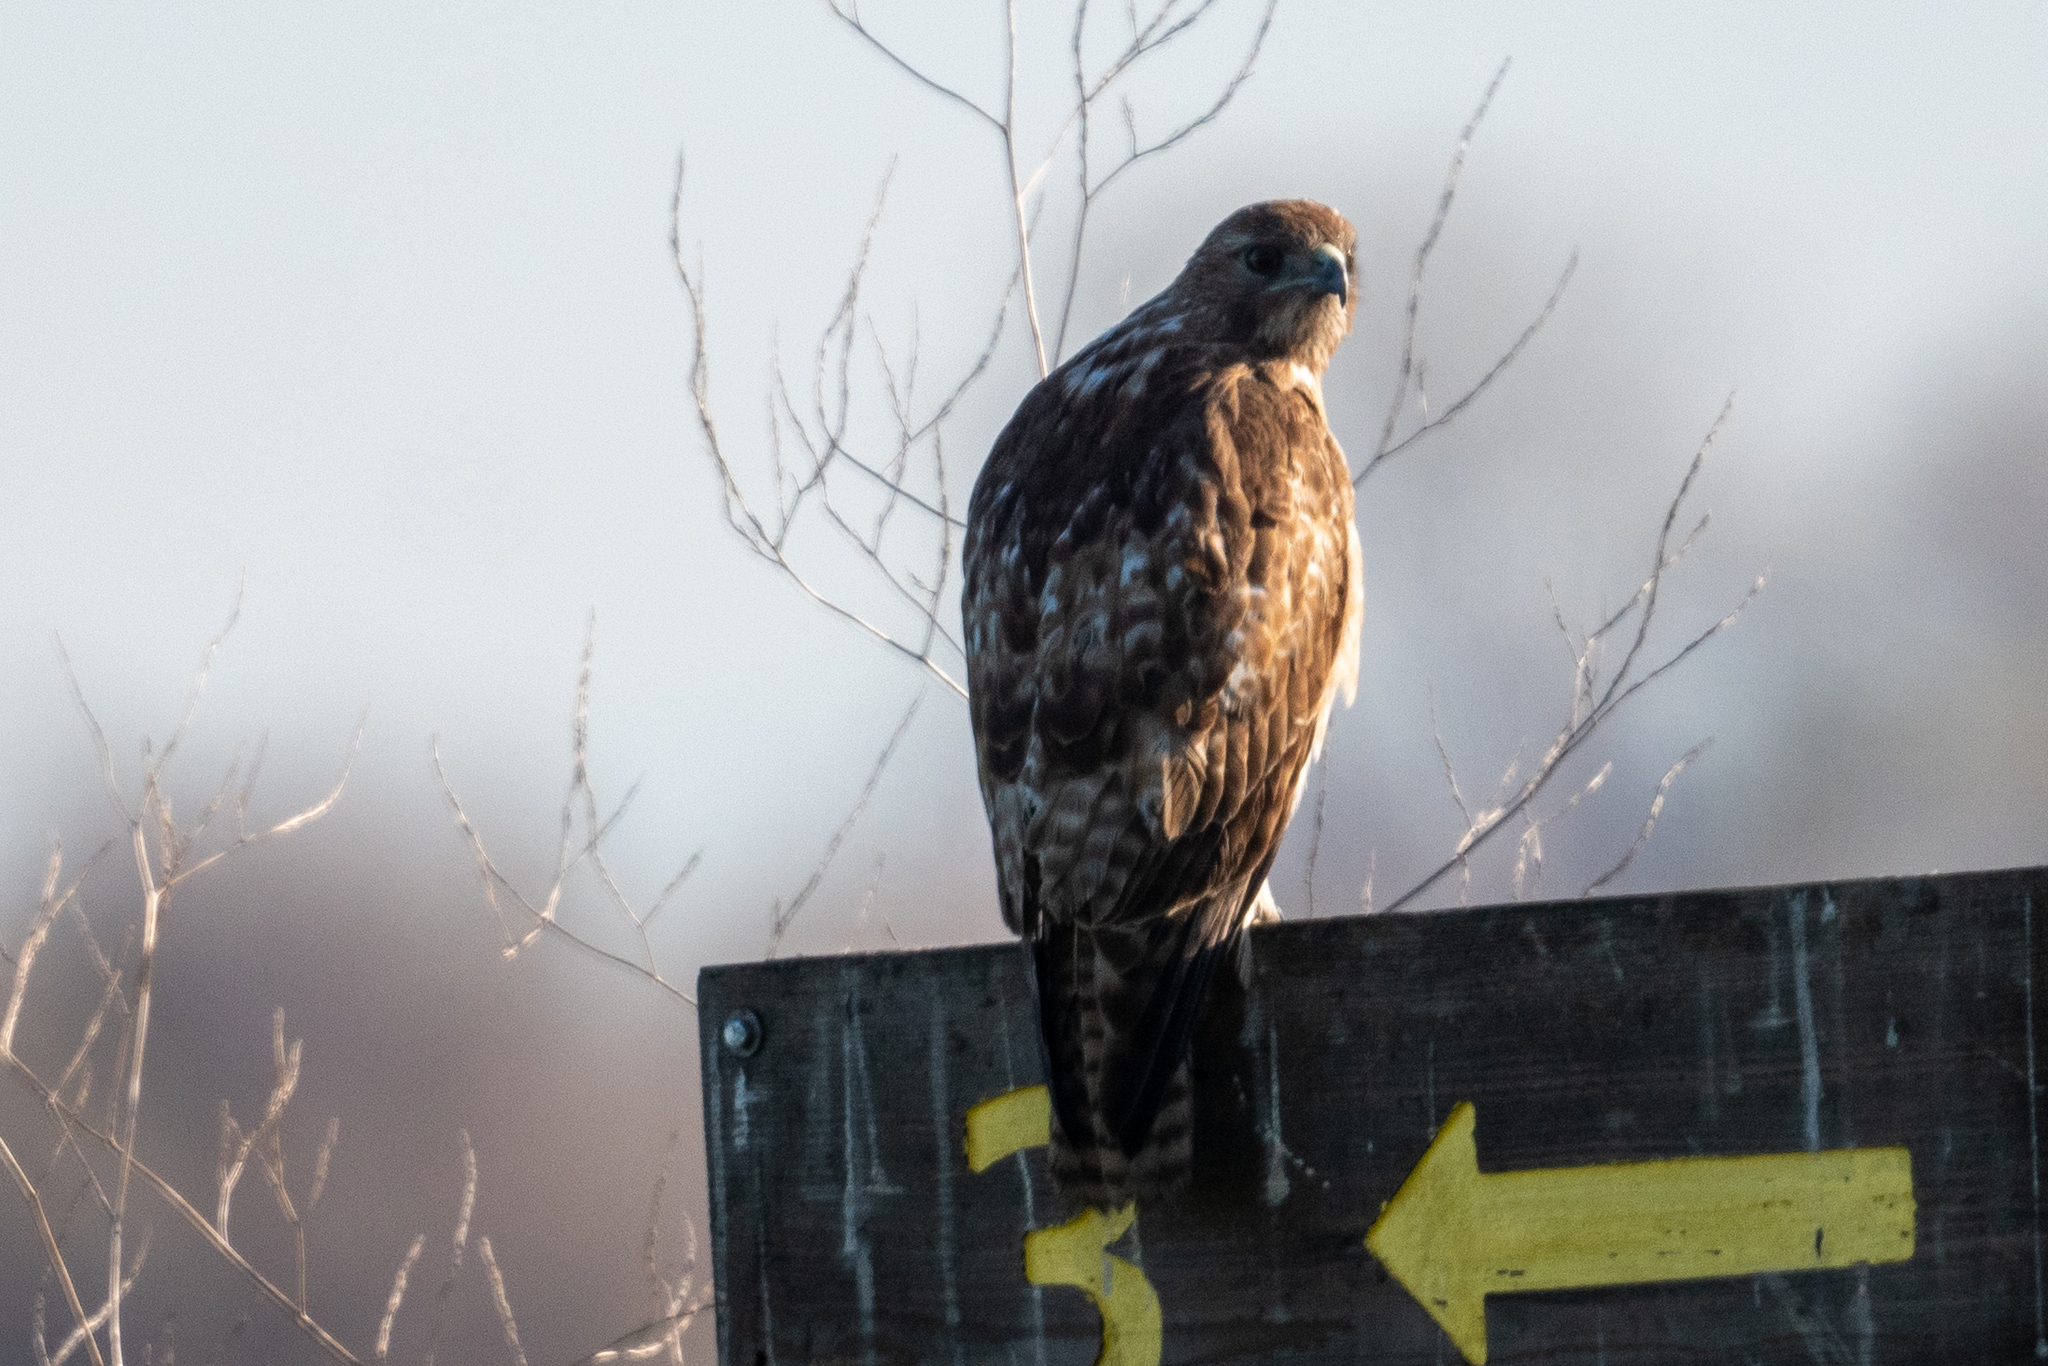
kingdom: Animalia
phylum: Chordata
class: Aves
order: Accipitriformes
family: Accipitridae
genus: Buteo
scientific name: Buteo jamaicensis
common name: Red-tailed hawk
